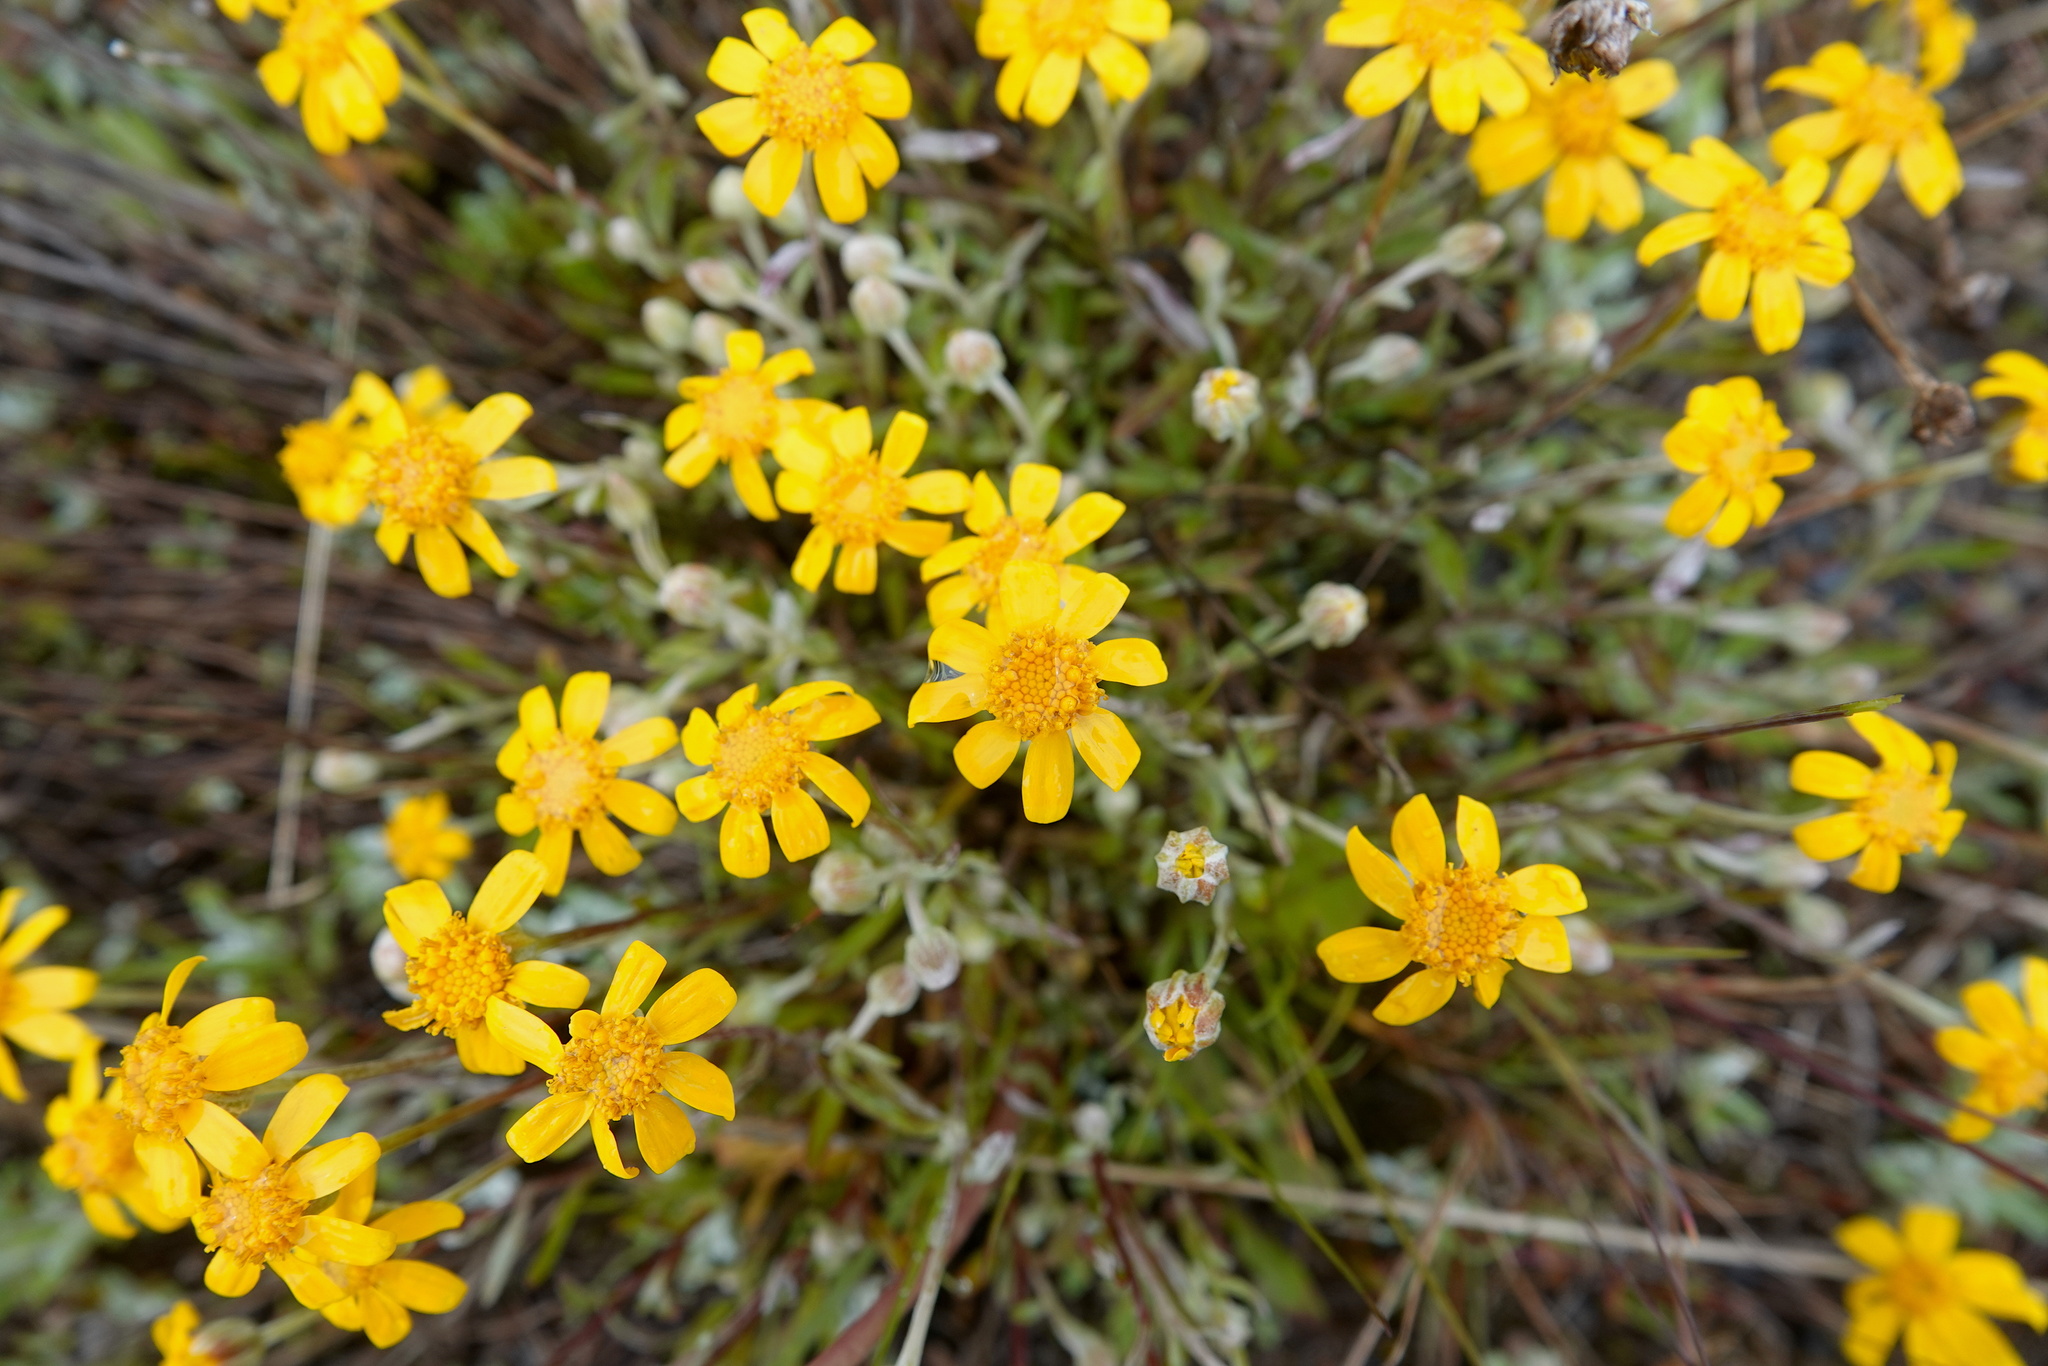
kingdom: Plantae
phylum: Tracheophyta
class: Magnoliopsida
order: Asterales
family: Asteraceae
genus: Eriophyllum
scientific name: Eriophyllum lanatum
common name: Common woolly-sunflower
